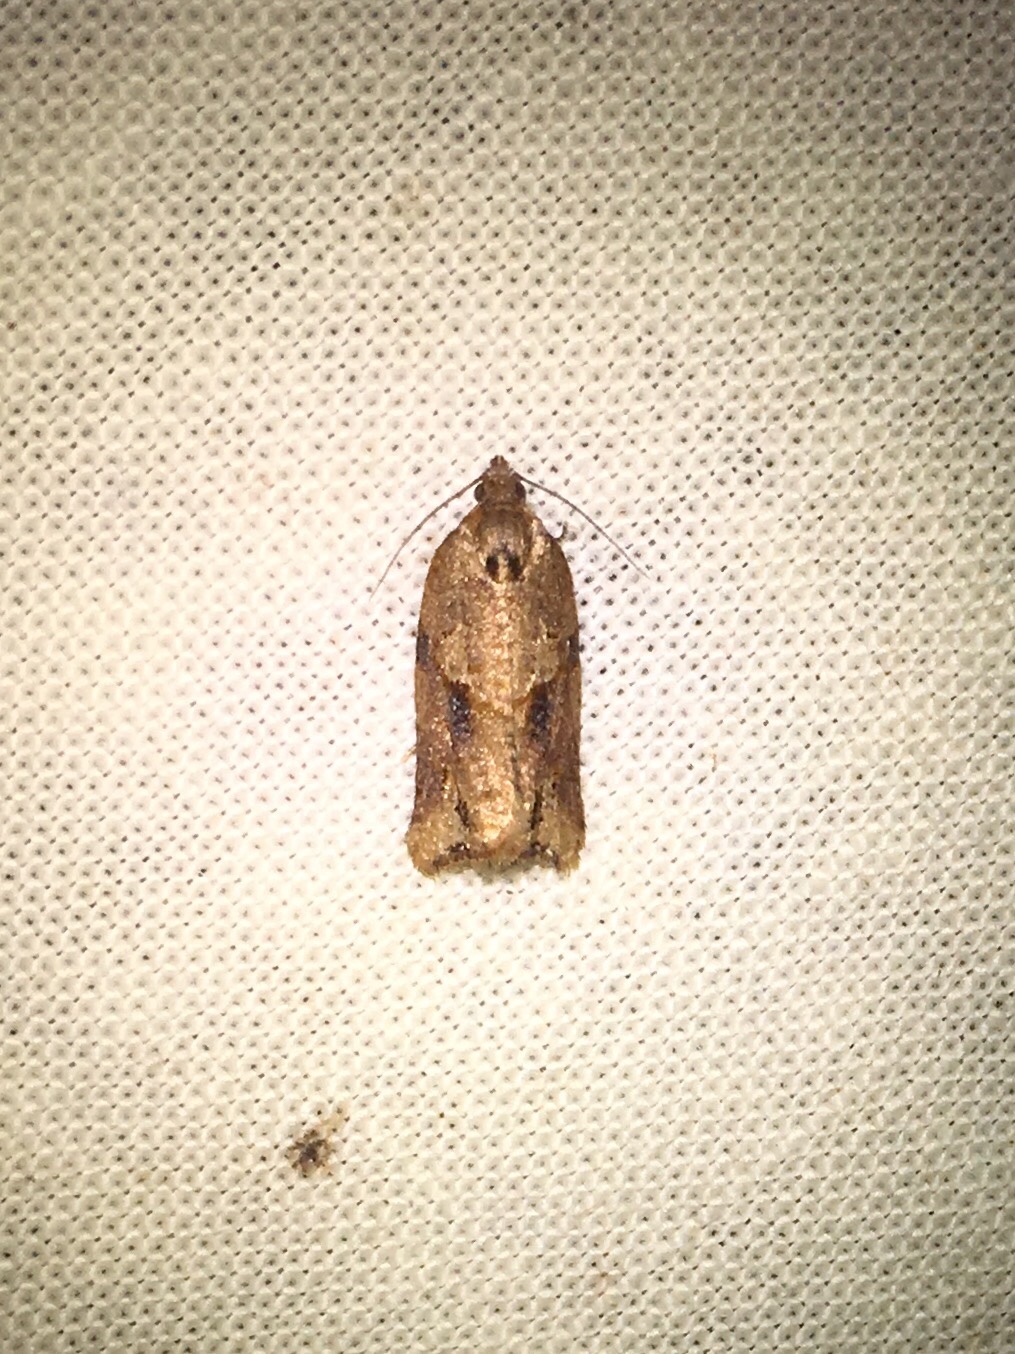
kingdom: Animalia
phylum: Arthropoda
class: Insecta
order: Lepidoptera
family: Tortricidae
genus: Argyrotaenia
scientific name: Argyrotaenia ivana
